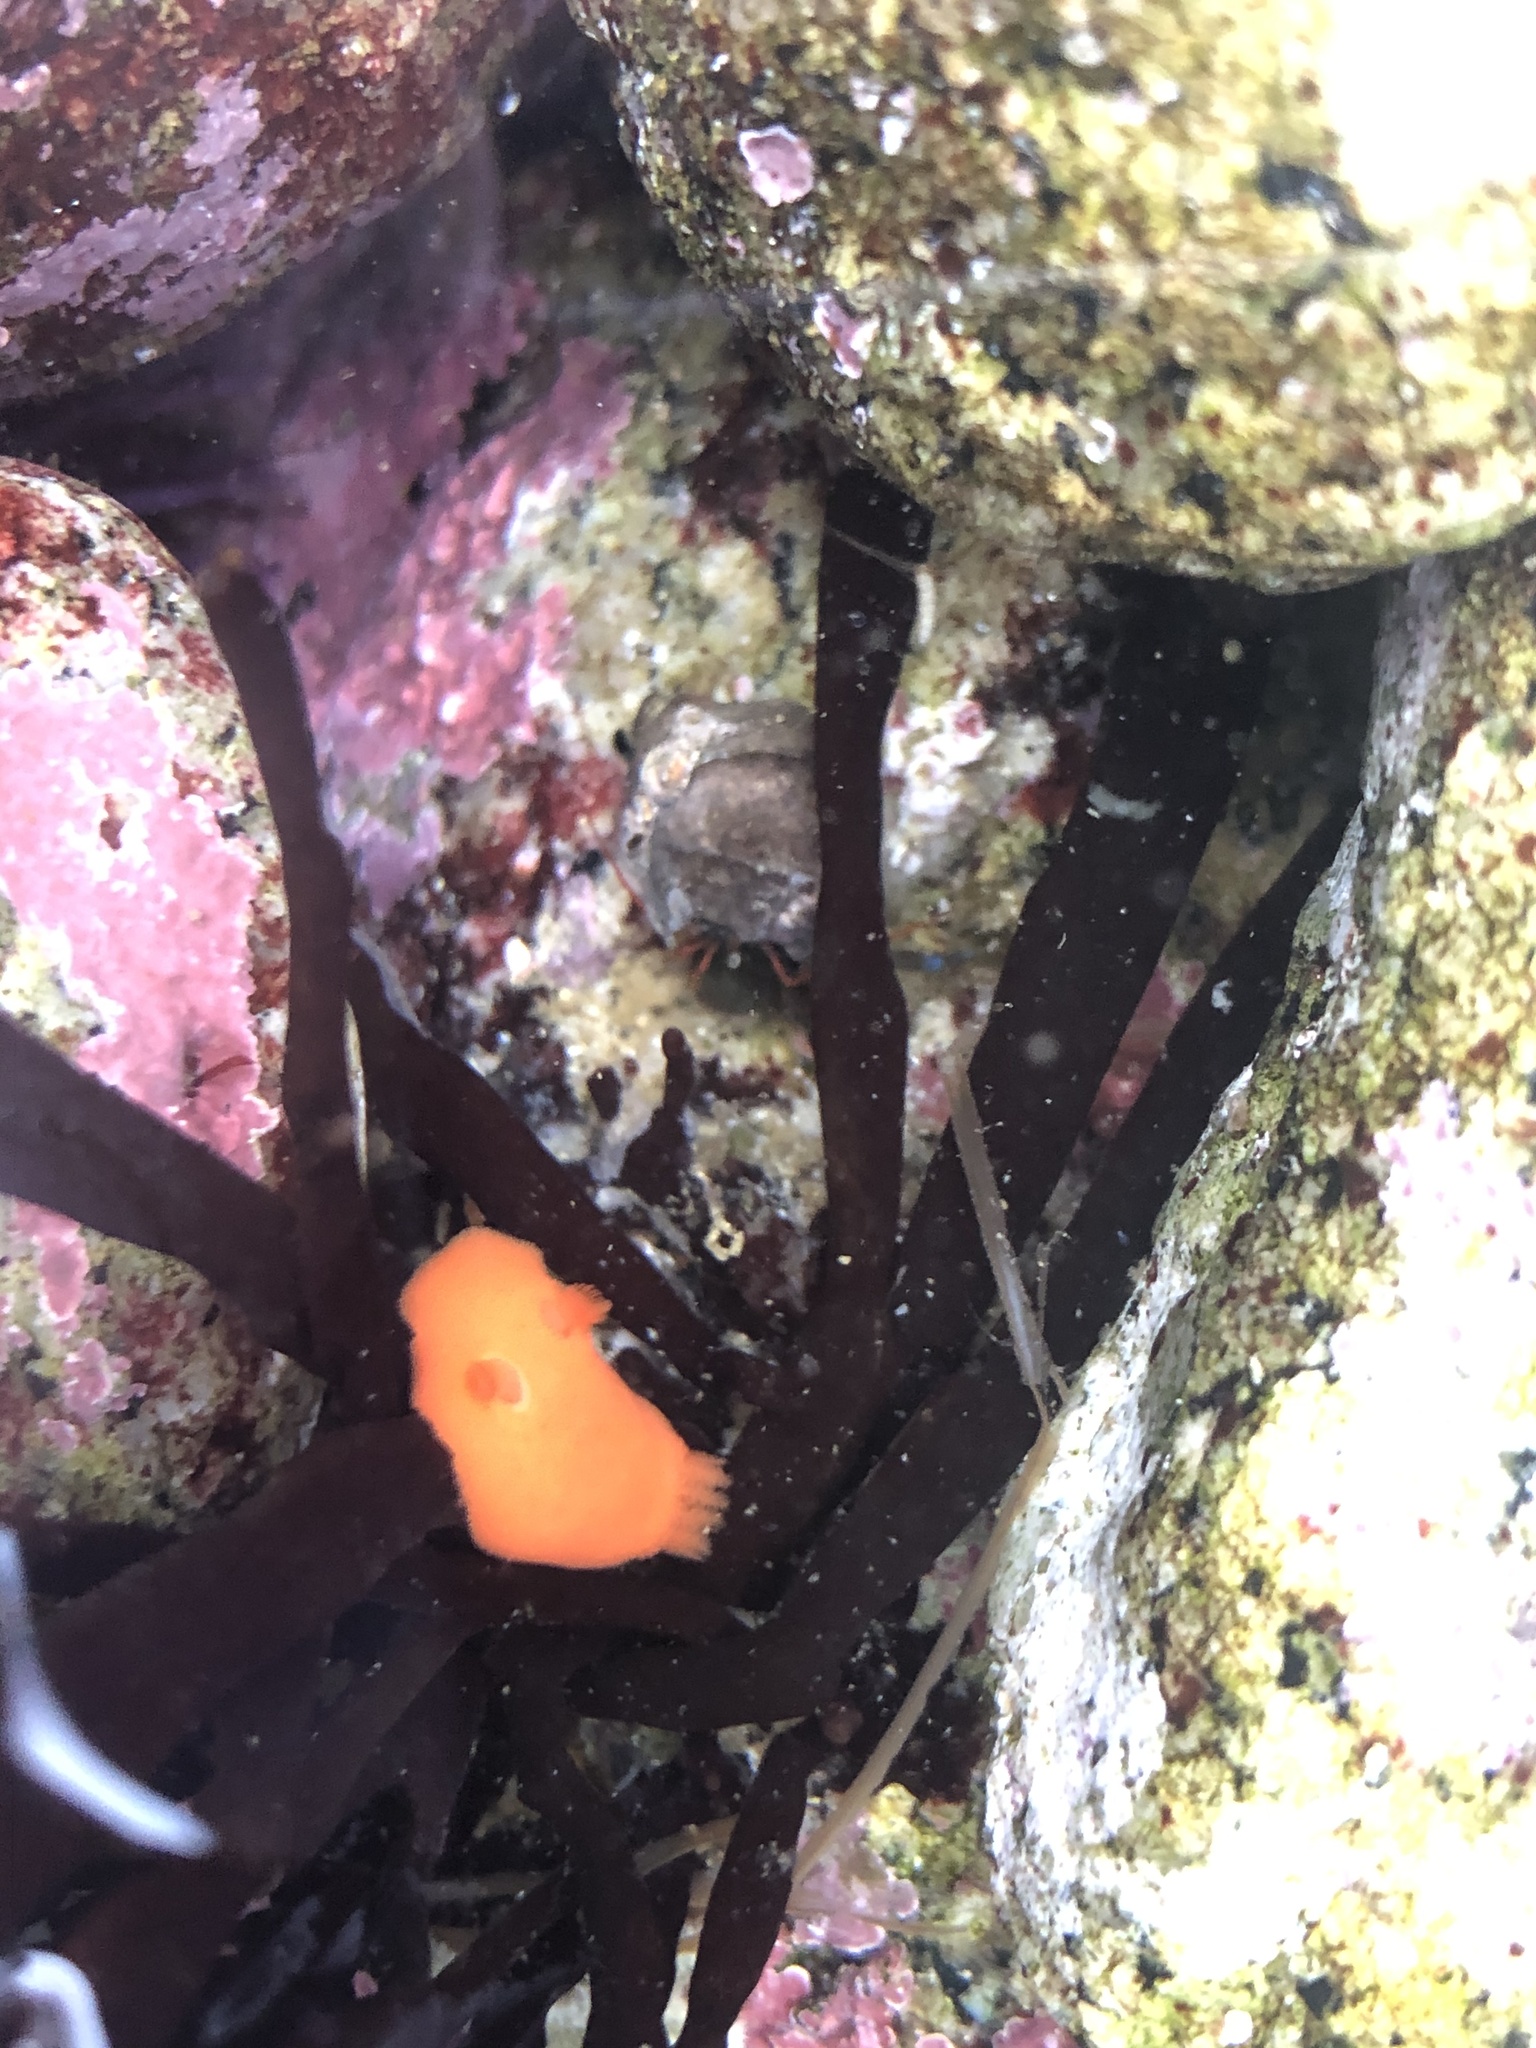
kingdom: Animalia
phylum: Mollusca
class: Gastropoda
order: Nudibranchia
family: Discodorididae
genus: Rostanga
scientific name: Rostanga pulchra
